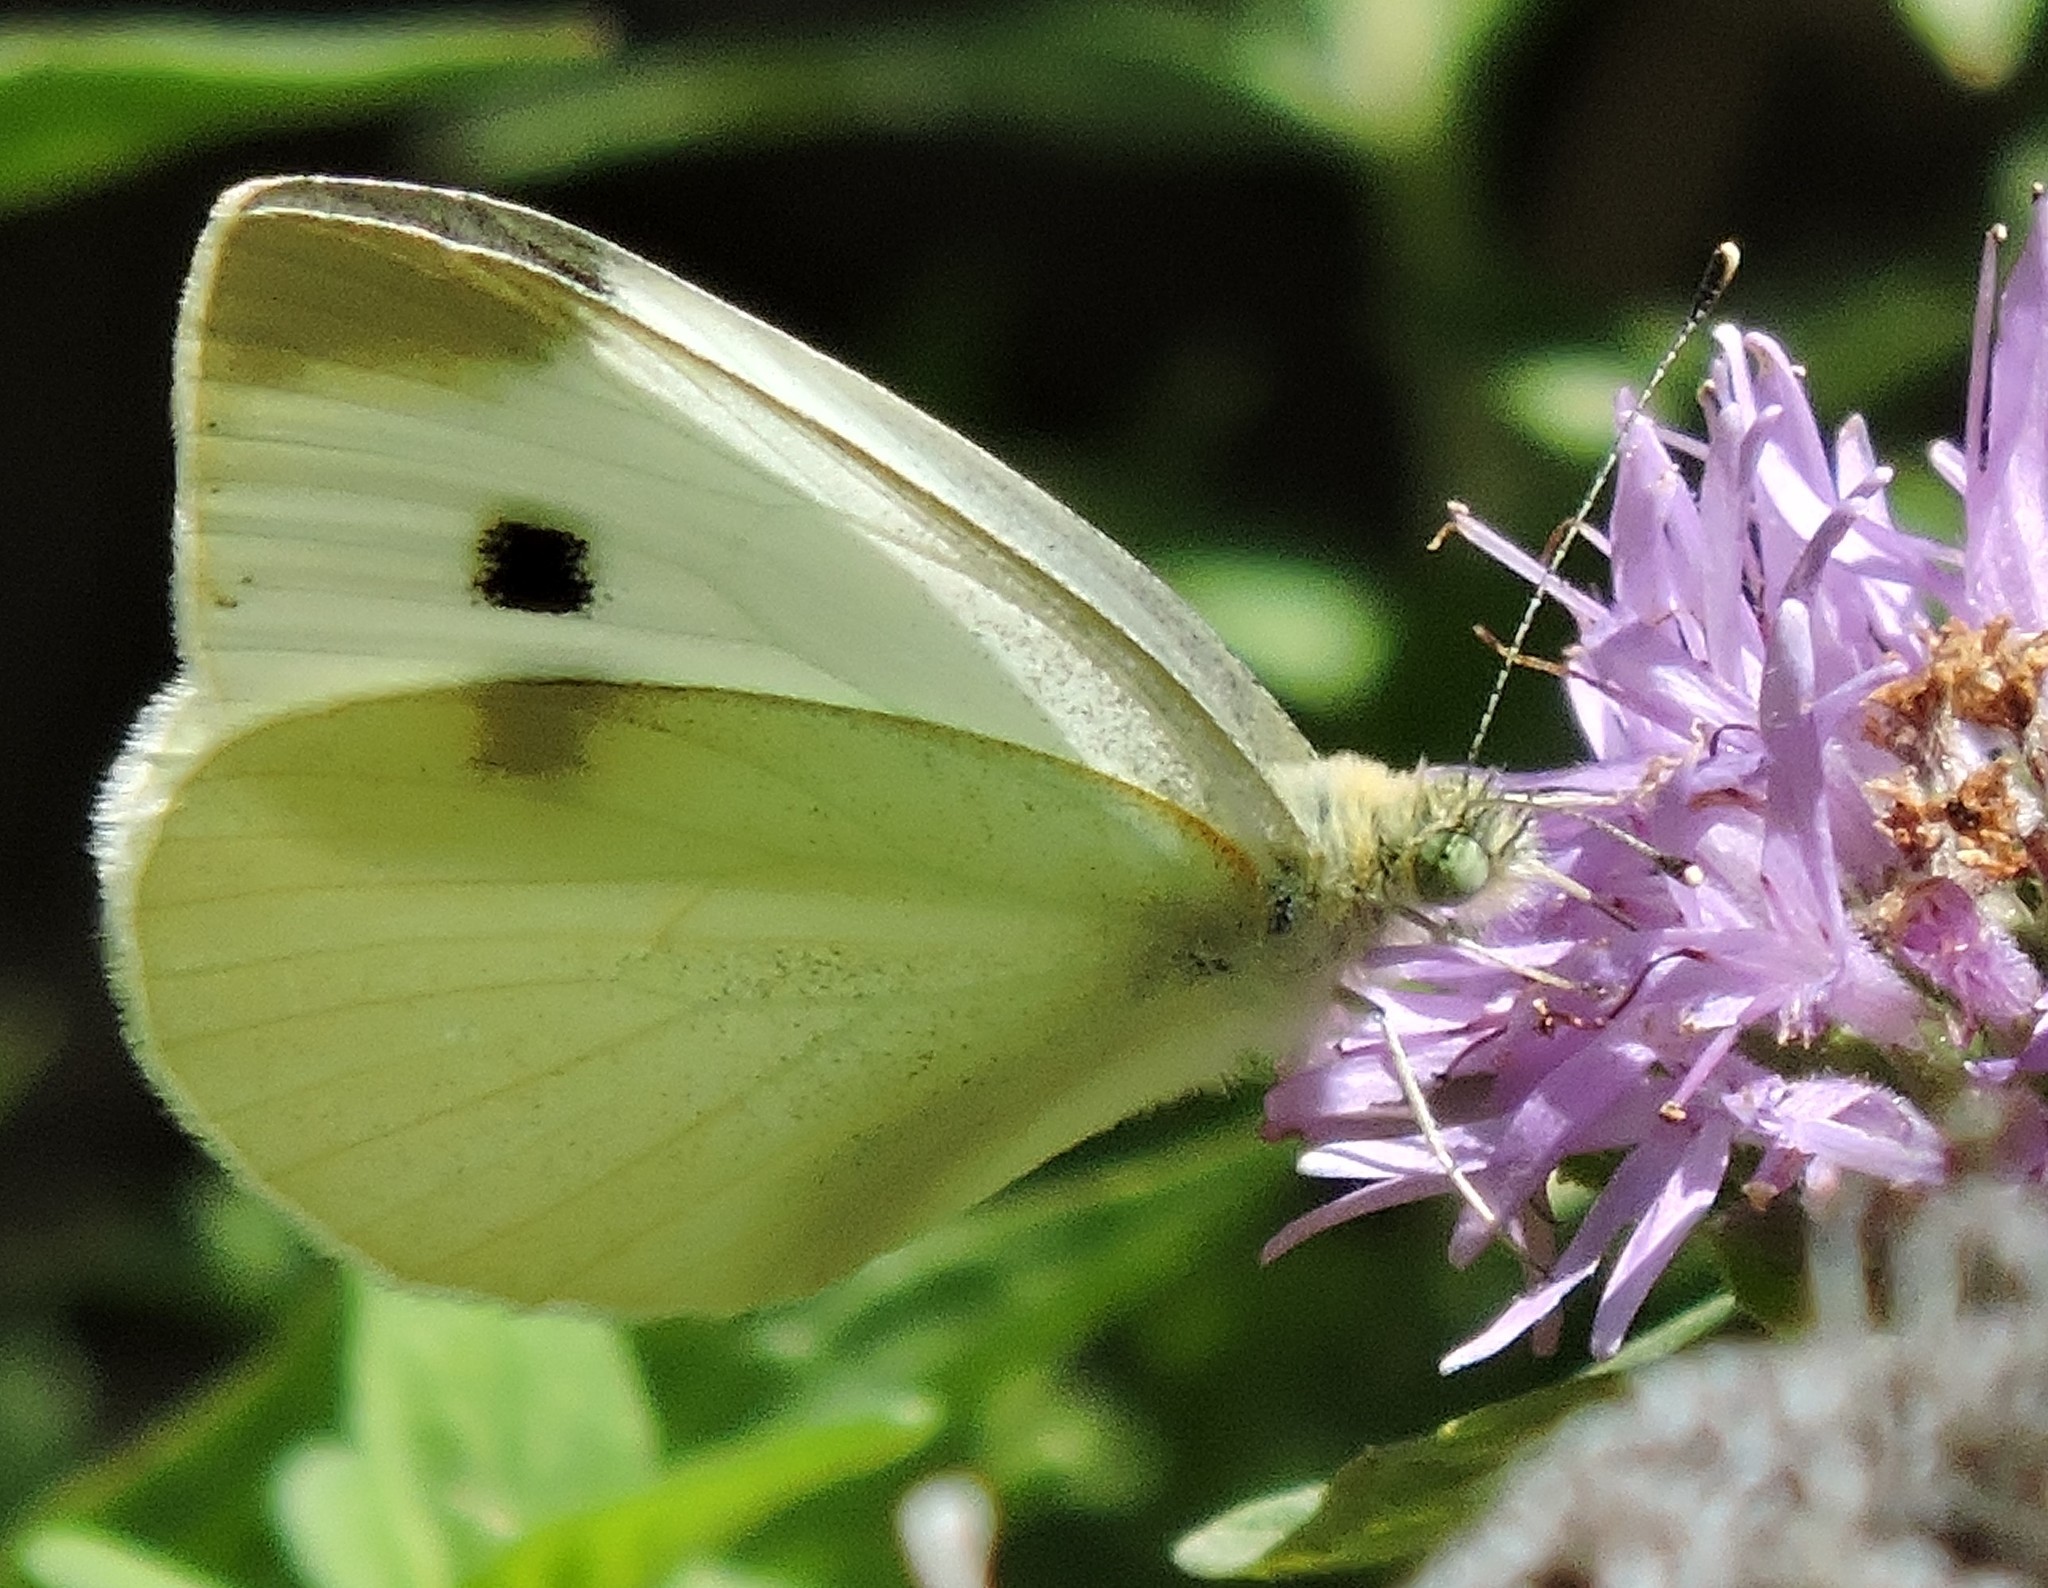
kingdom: Animalia
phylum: Arthropoda
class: Insecta
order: Lepidoptera
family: Pieridae
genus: Pieris
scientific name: Pieris rapae
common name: Small white
